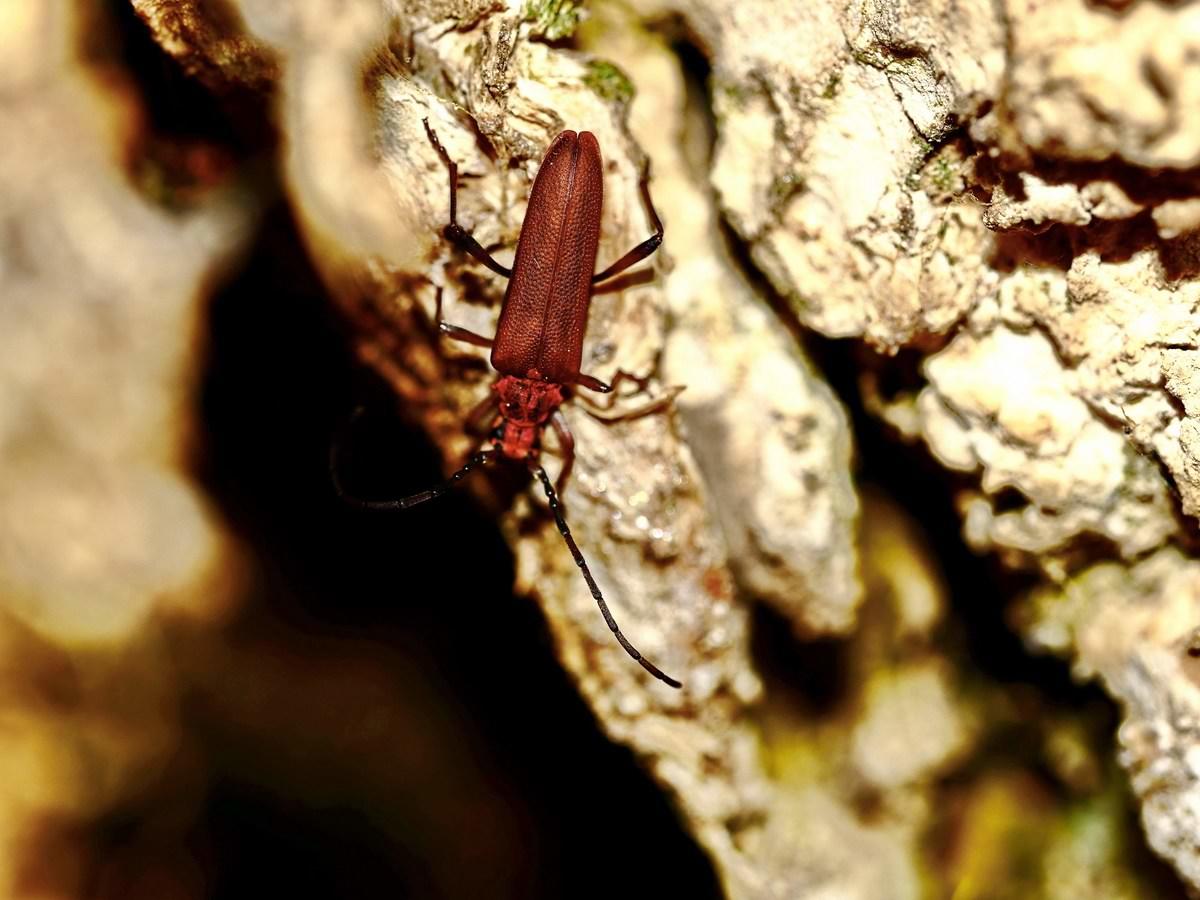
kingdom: Animalia
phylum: Arthropoda
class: Insecta
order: Coleoptera
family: Cerambycidae
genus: Enoploderes
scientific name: Enoploderes sanguineus
